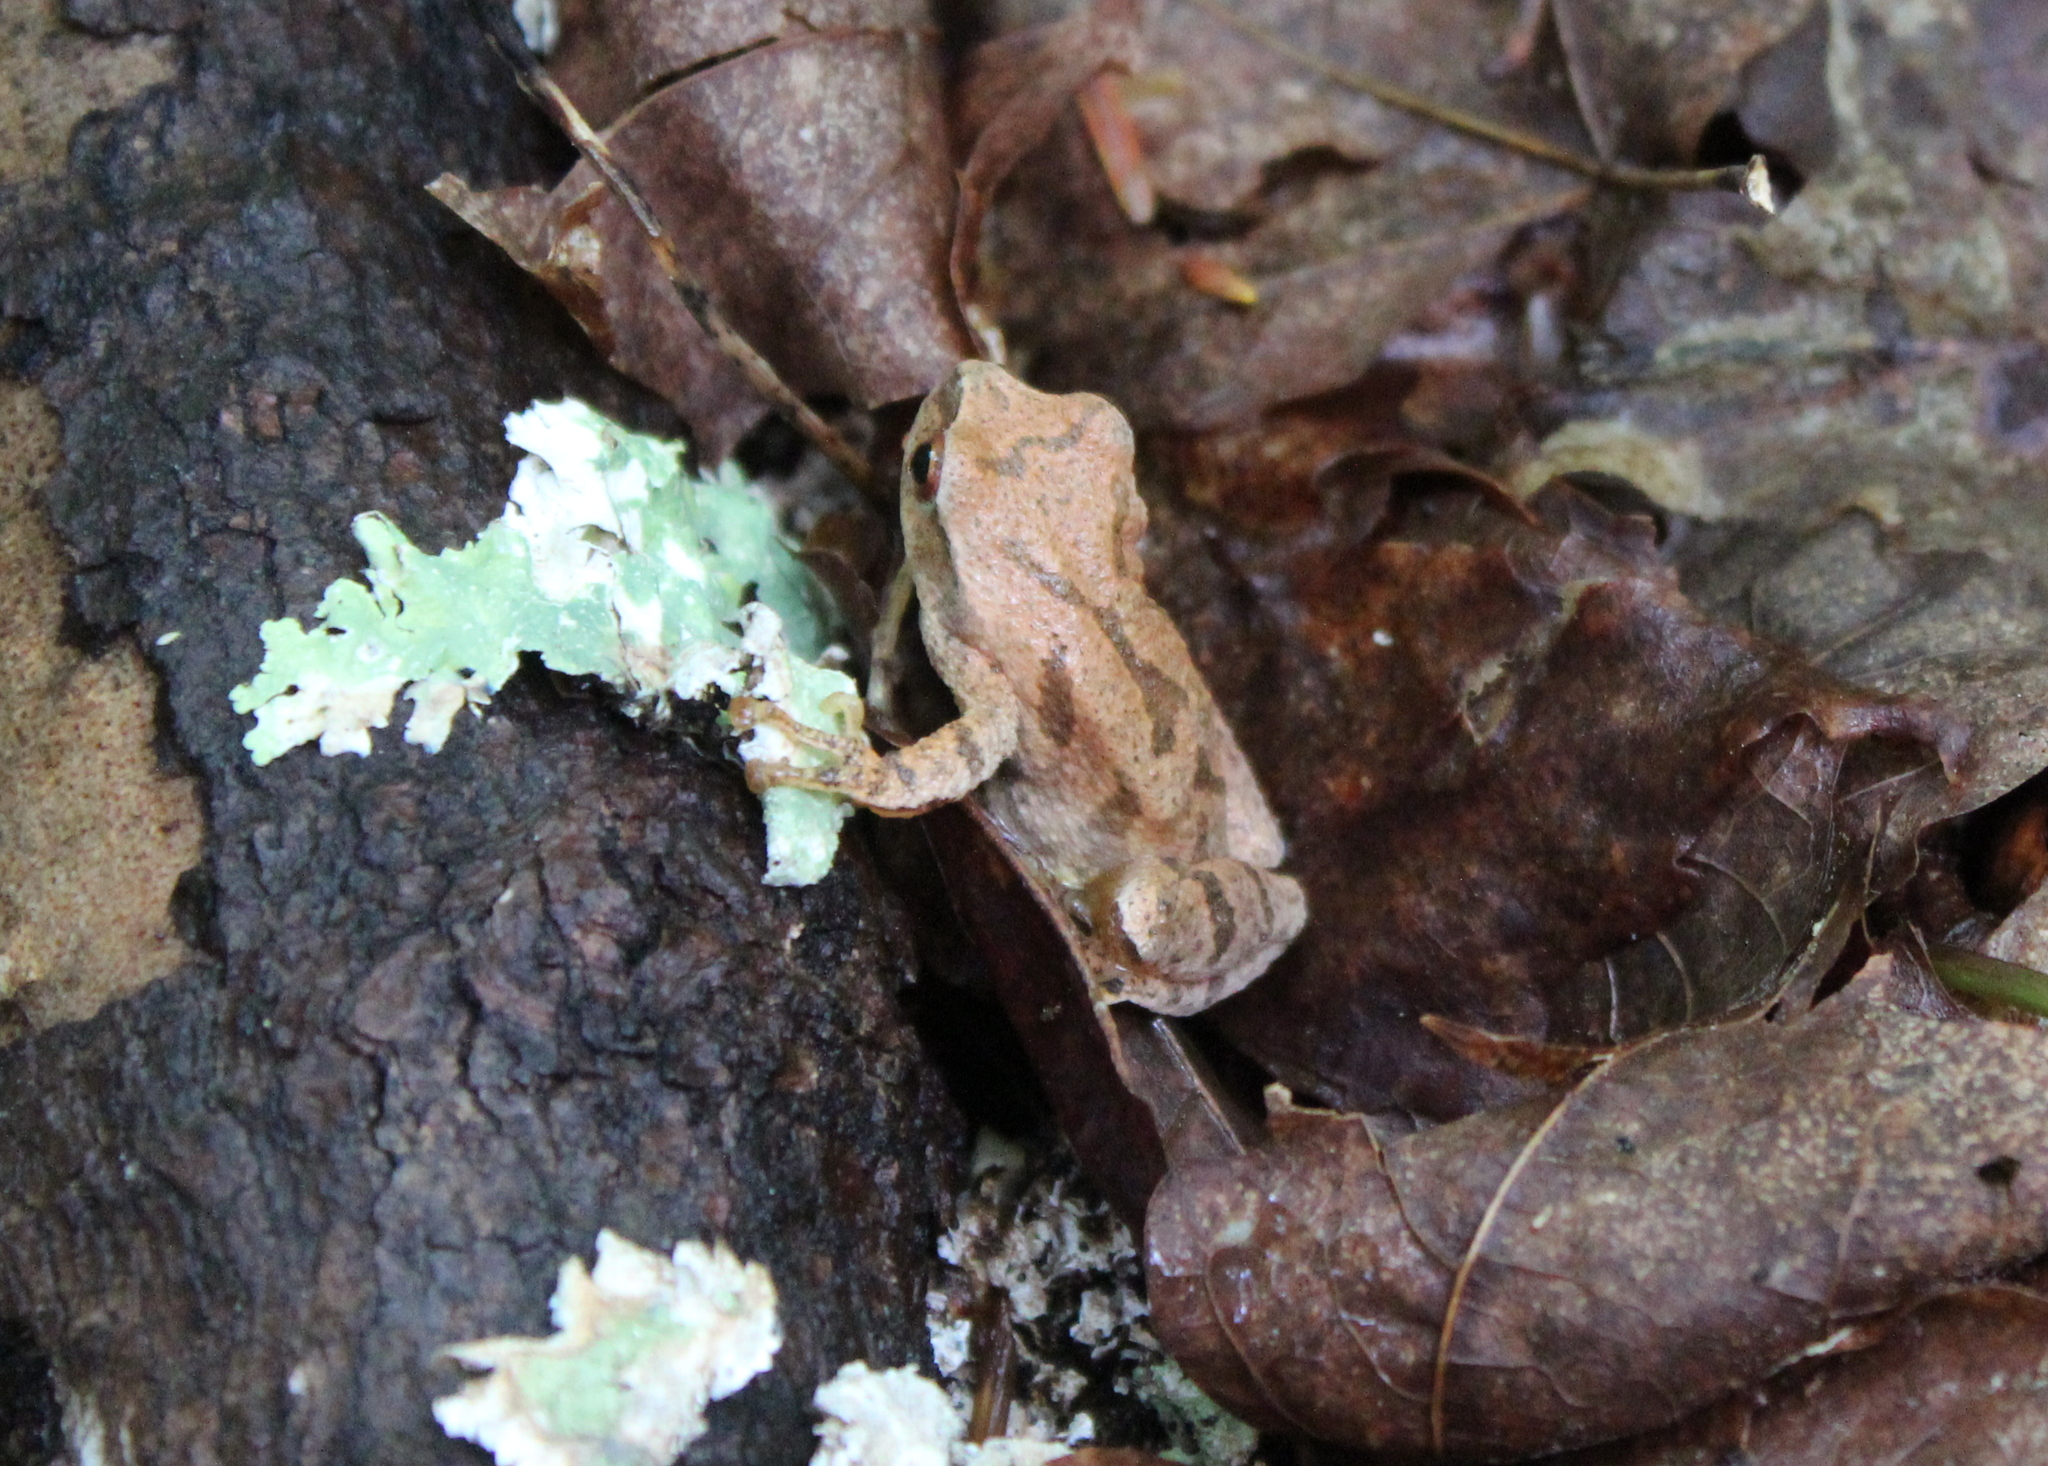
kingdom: Animalia
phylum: Chordata
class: Amphibia
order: Anura
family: Hylidae
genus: Pseudacris
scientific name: Pseudacris crucifer
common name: Spring peeper
